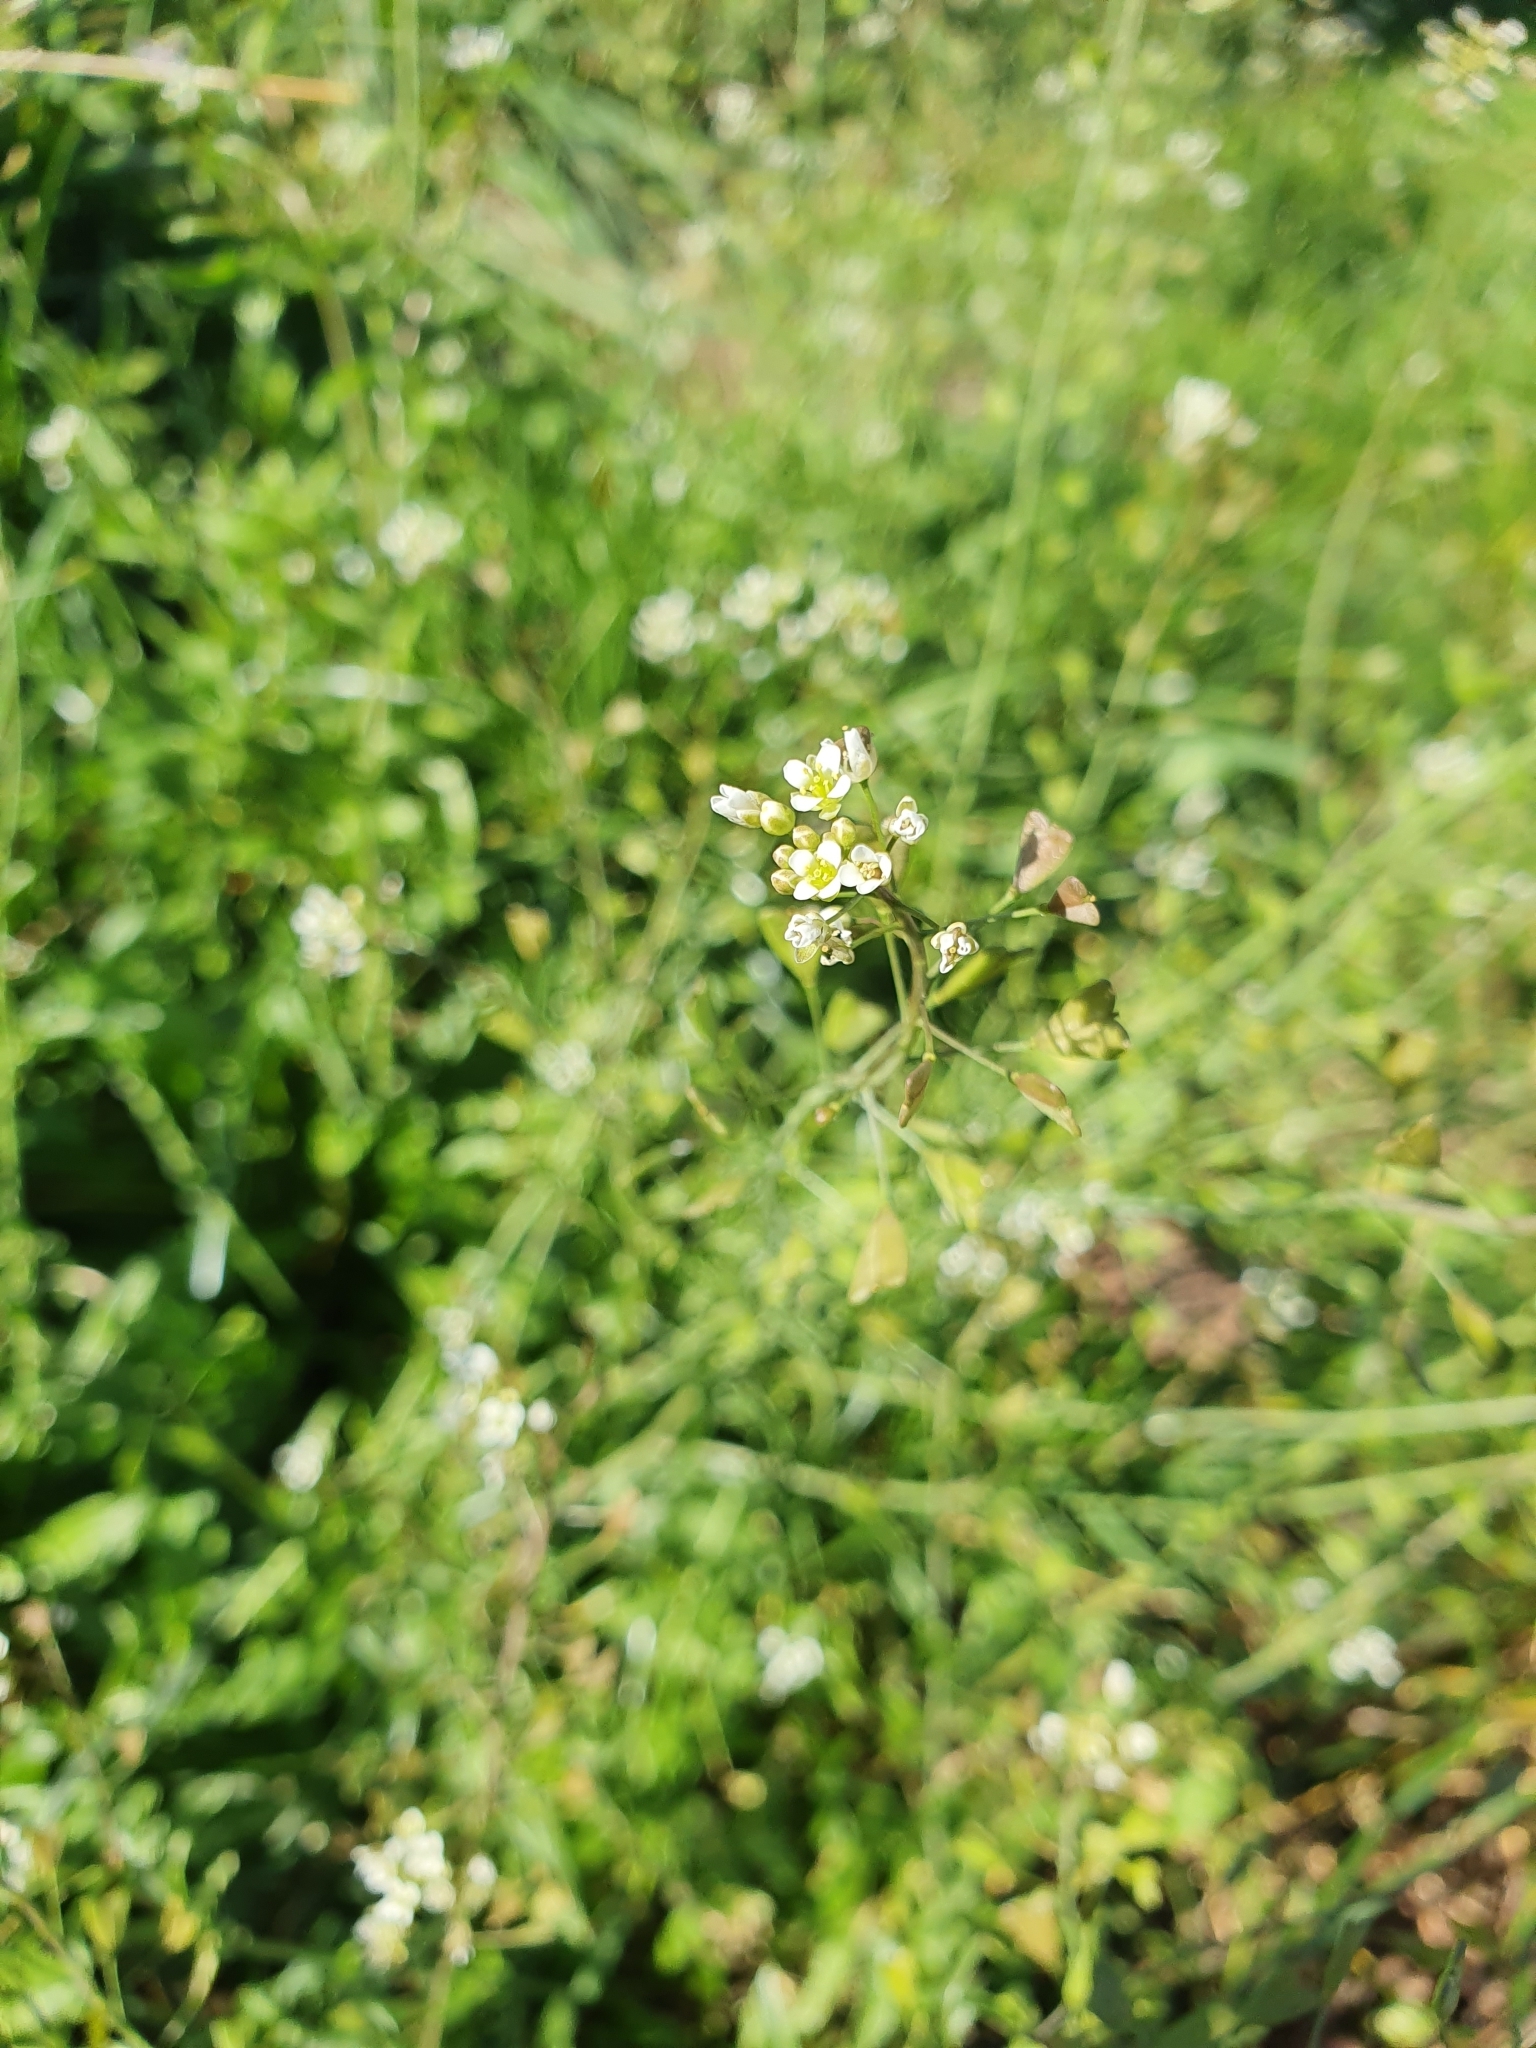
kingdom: Plantae
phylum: Tracheophyta
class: Magnoliopsida
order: Brassicales
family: Brassicaceae
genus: Capsella
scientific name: Capsella bursa-pastoris
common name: Shepherd's purse
